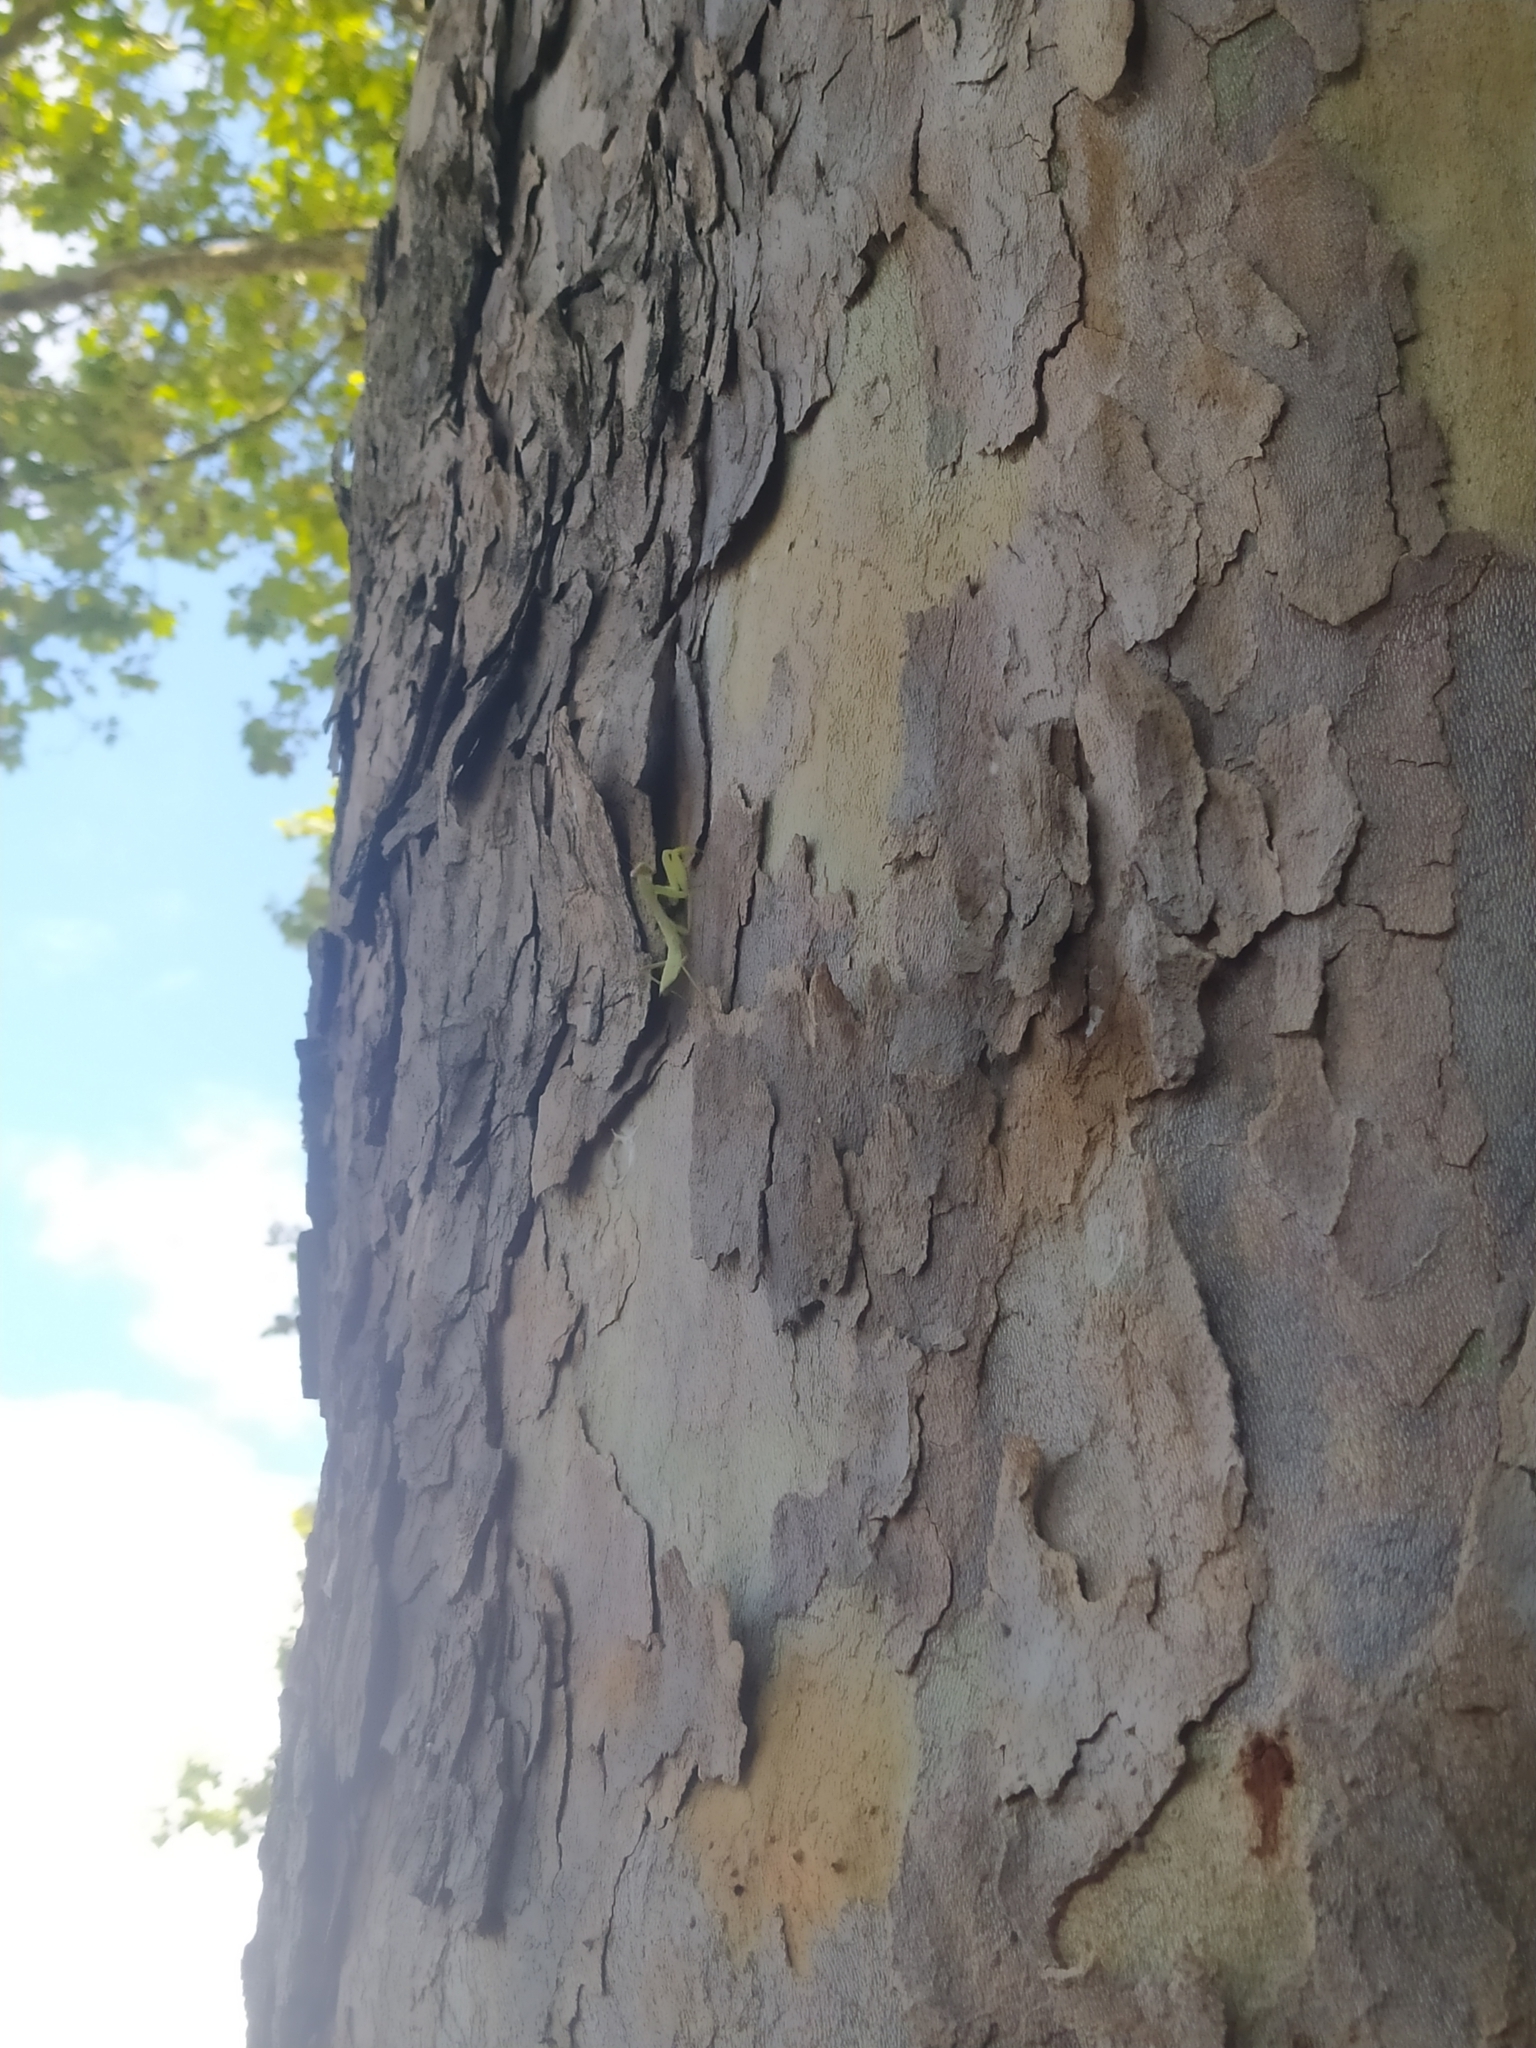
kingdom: Animalia
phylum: Arthropoda
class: Insecta
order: Mantodea
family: Mantidae
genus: Hierodula
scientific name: Hierodula transcaucasica
